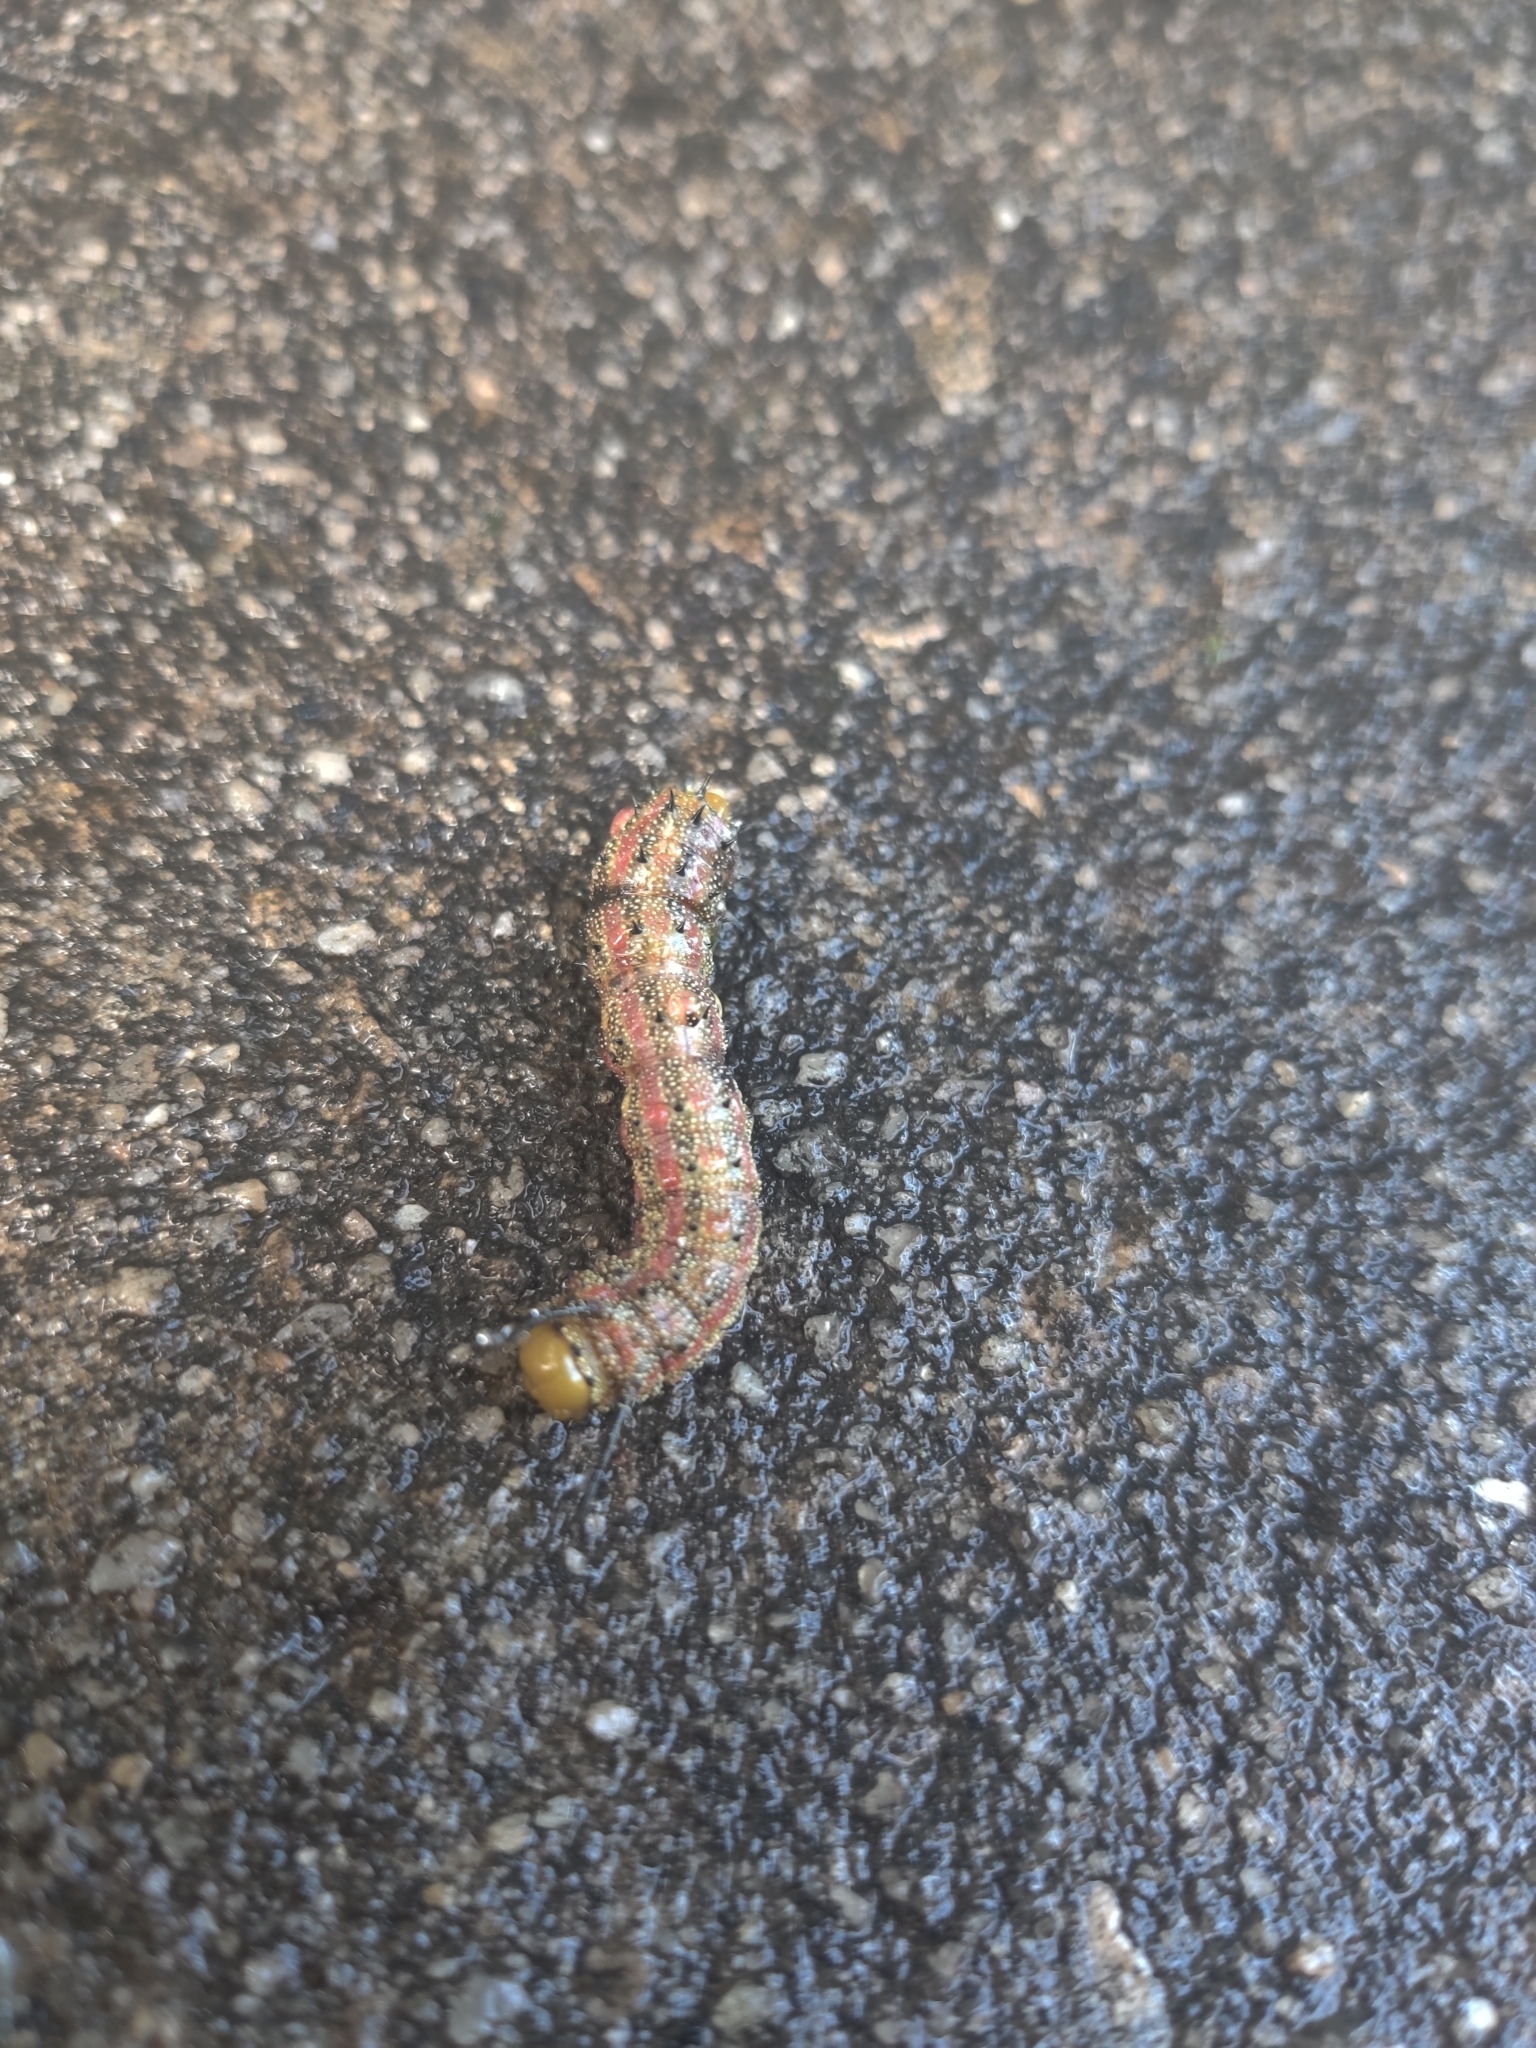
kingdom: Animalia
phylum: Arthropoda
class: Insecta
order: Lepidoptera
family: Saturniidae
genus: Anisota
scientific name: Anisota virginiensis
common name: Pink striped oakworm moth
